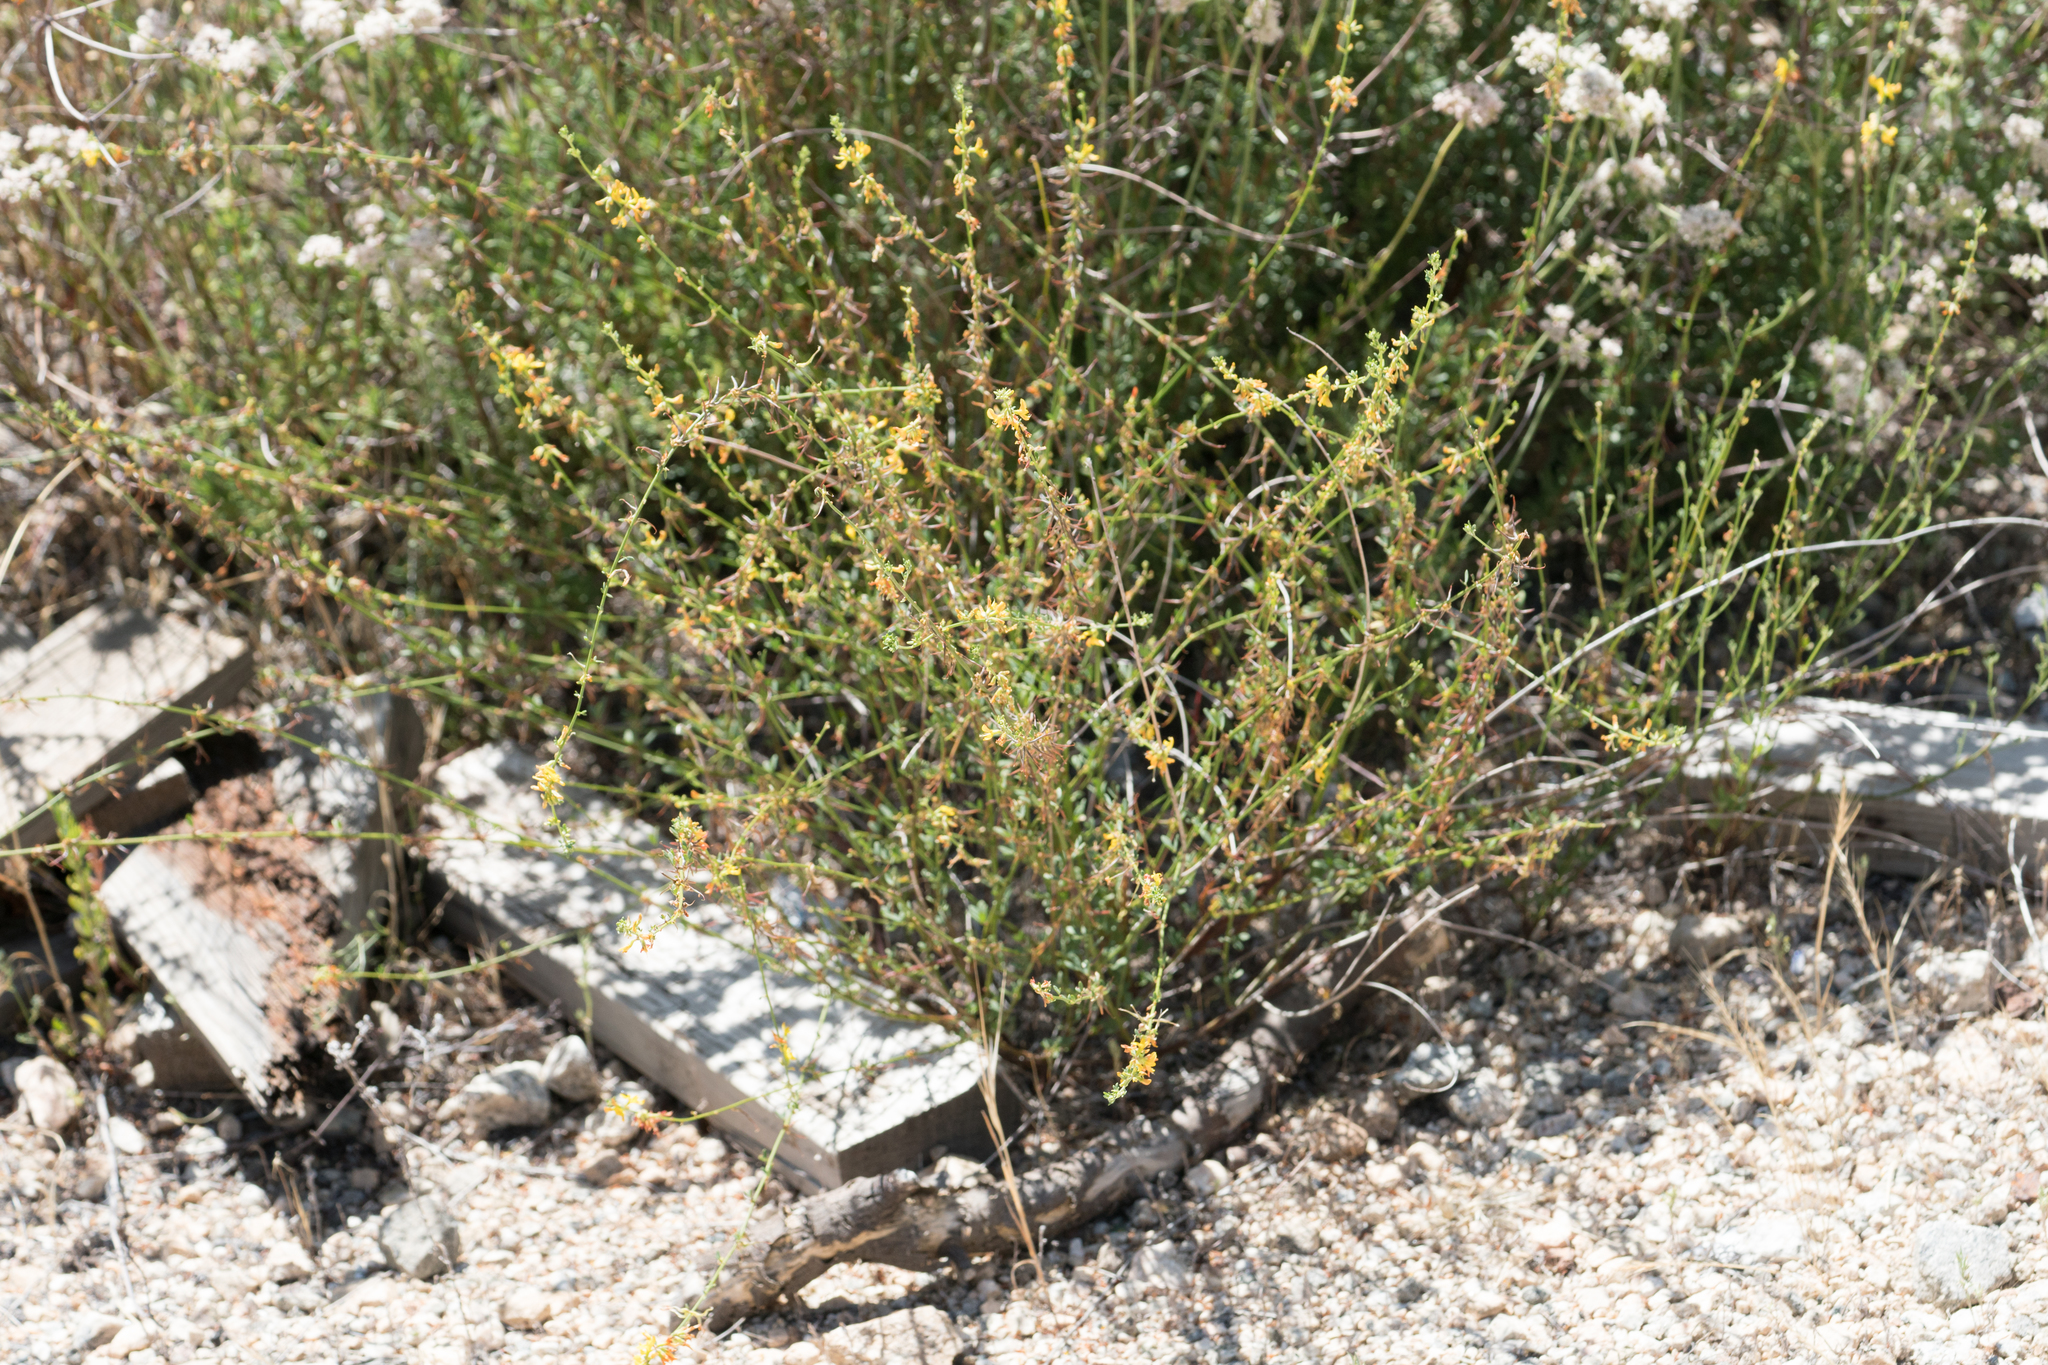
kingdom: Plantae
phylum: Tracheophyta
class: Magnoliopsida
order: Fabales
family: Fabaceae
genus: Acmispon
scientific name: Acmispon glaber
